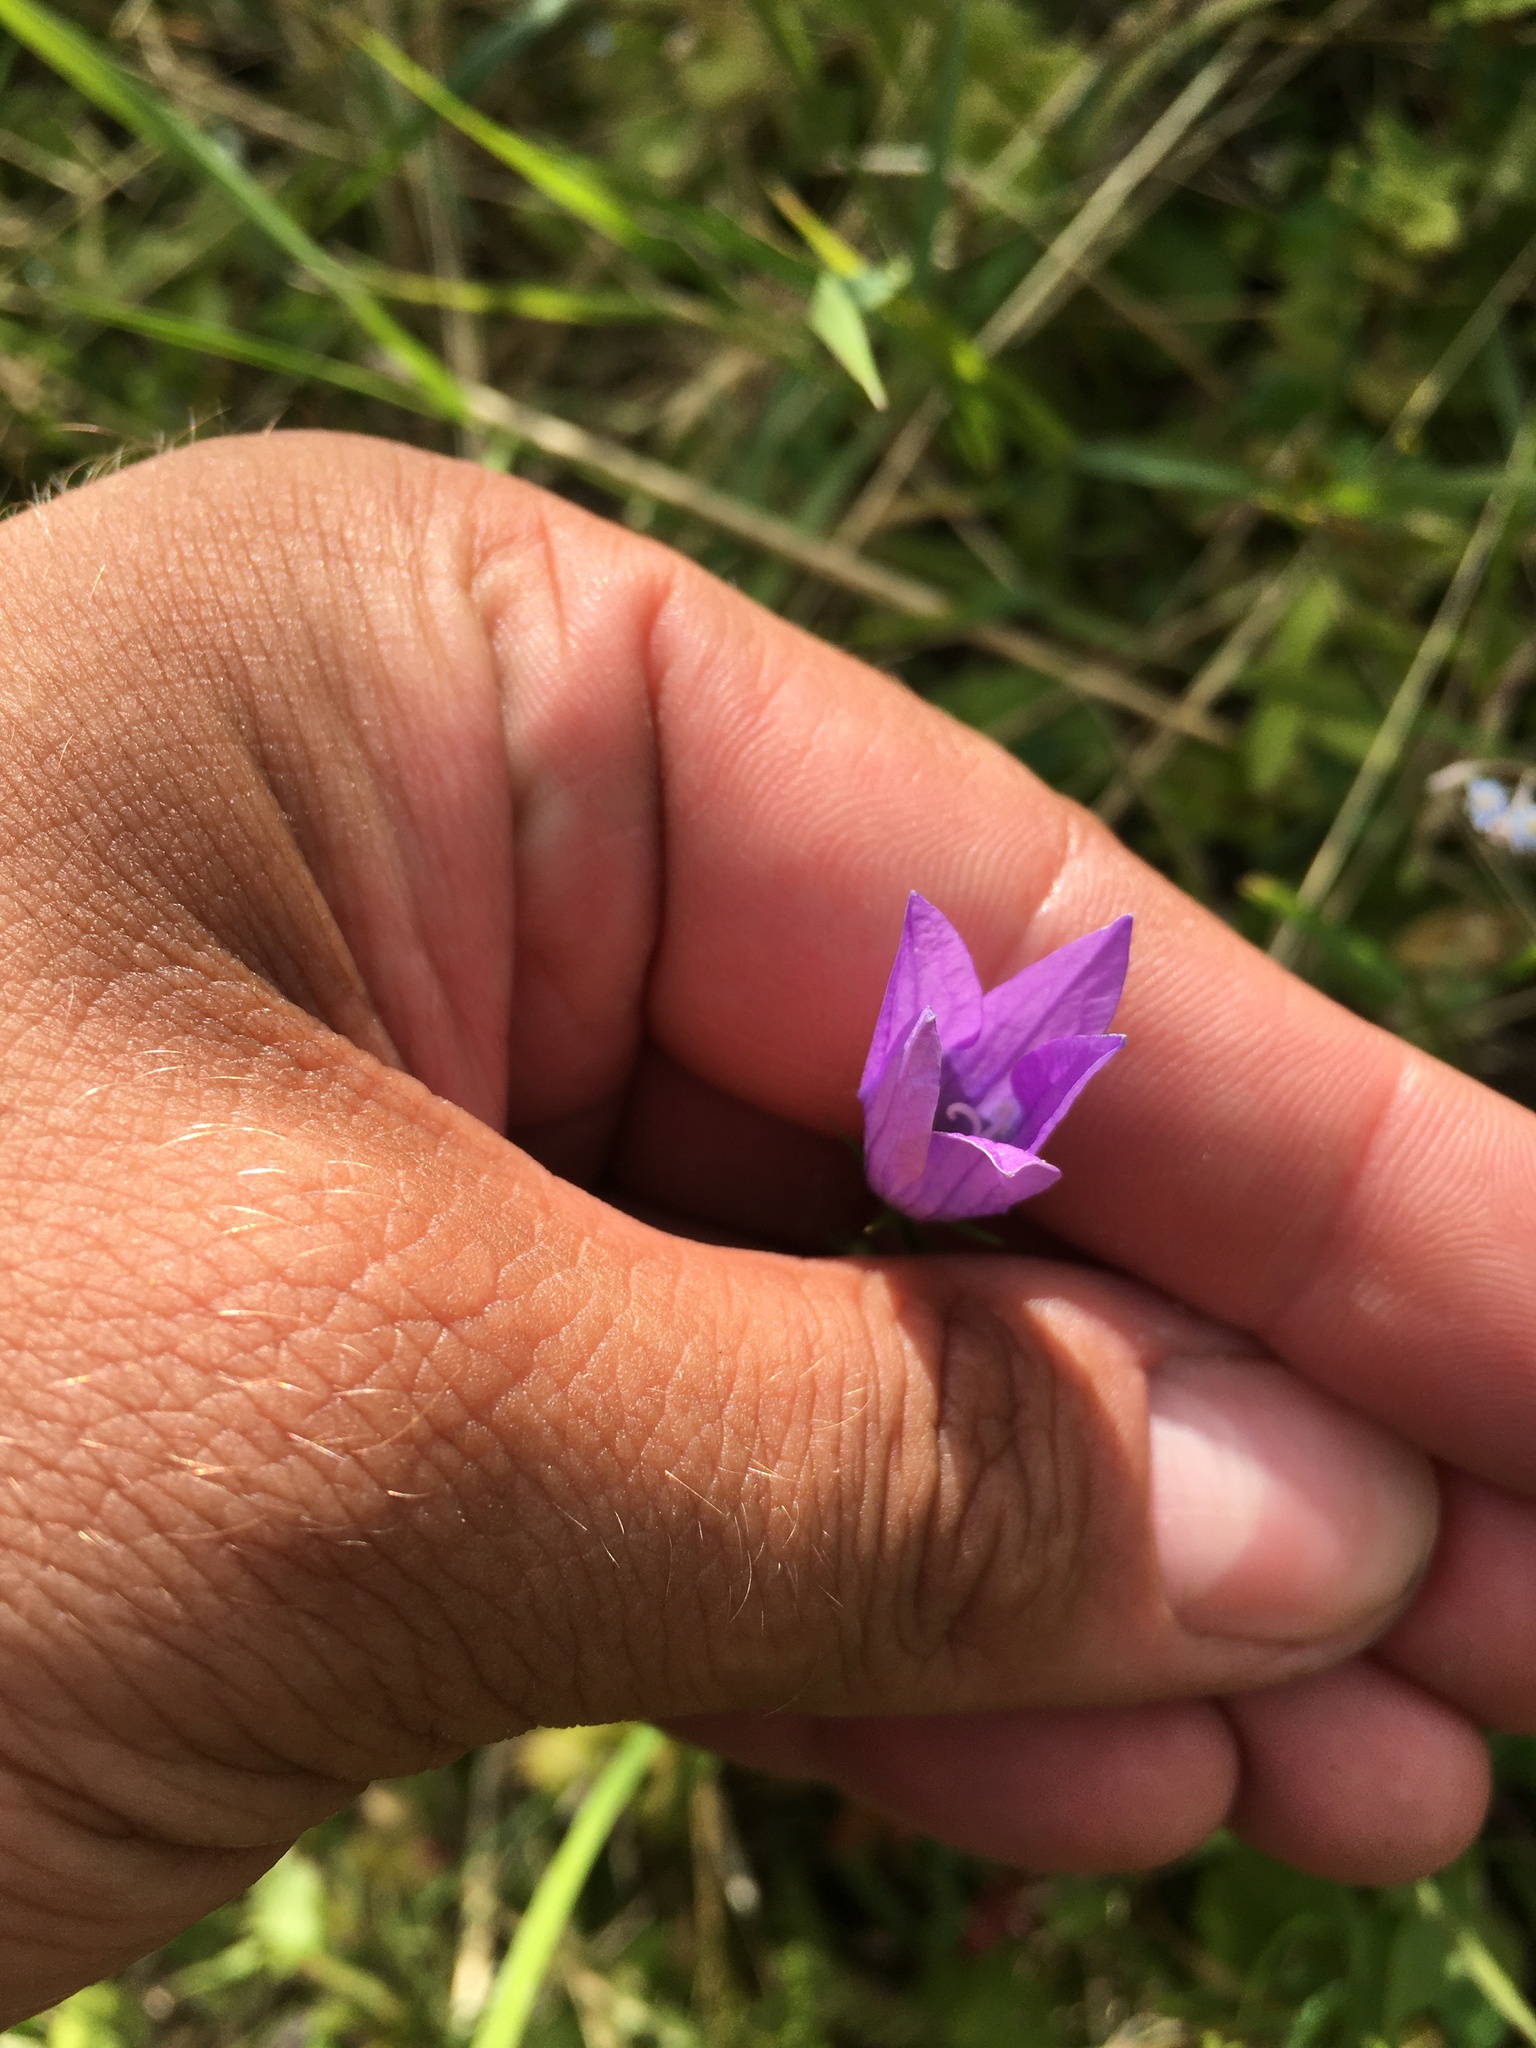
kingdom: Plantae
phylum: Tracheophyta
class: Magnoliopsida
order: Asterales
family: Campanulaceae
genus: Campanula
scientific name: Campanula patula
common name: Spreading bellflower
